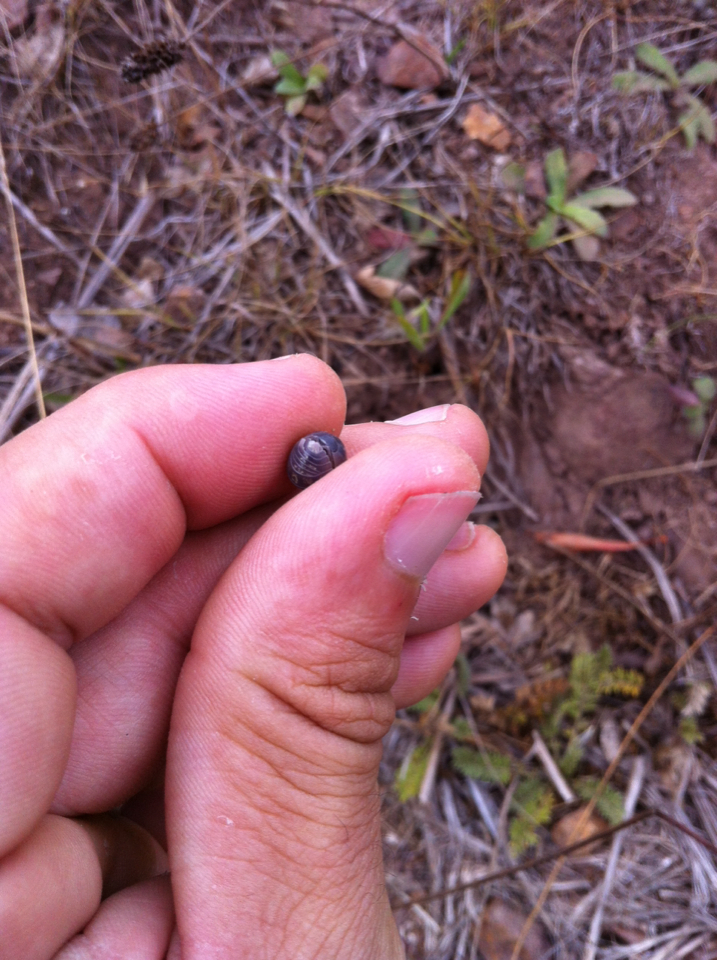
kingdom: Animalia
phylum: Arthropoda
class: Malacostraca
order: Isopoda
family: Armadillidiidae
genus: Armadillidium
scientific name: Armadillidium vulgare
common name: Common pill woodlouse
